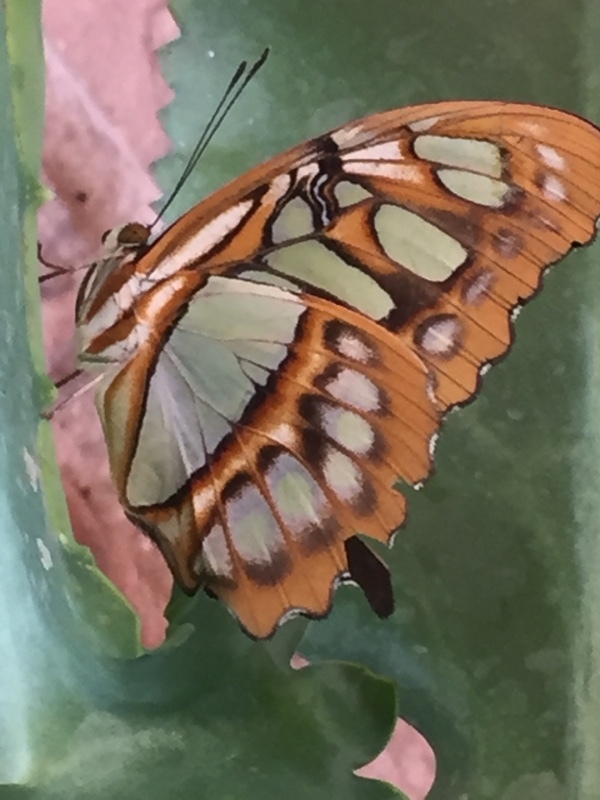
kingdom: Animalia
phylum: Arthropoda
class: Insecta
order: Lepidoptera
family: Nymphalidae
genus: Siproeta
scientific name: Siproeta stelenes
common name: Malachite
